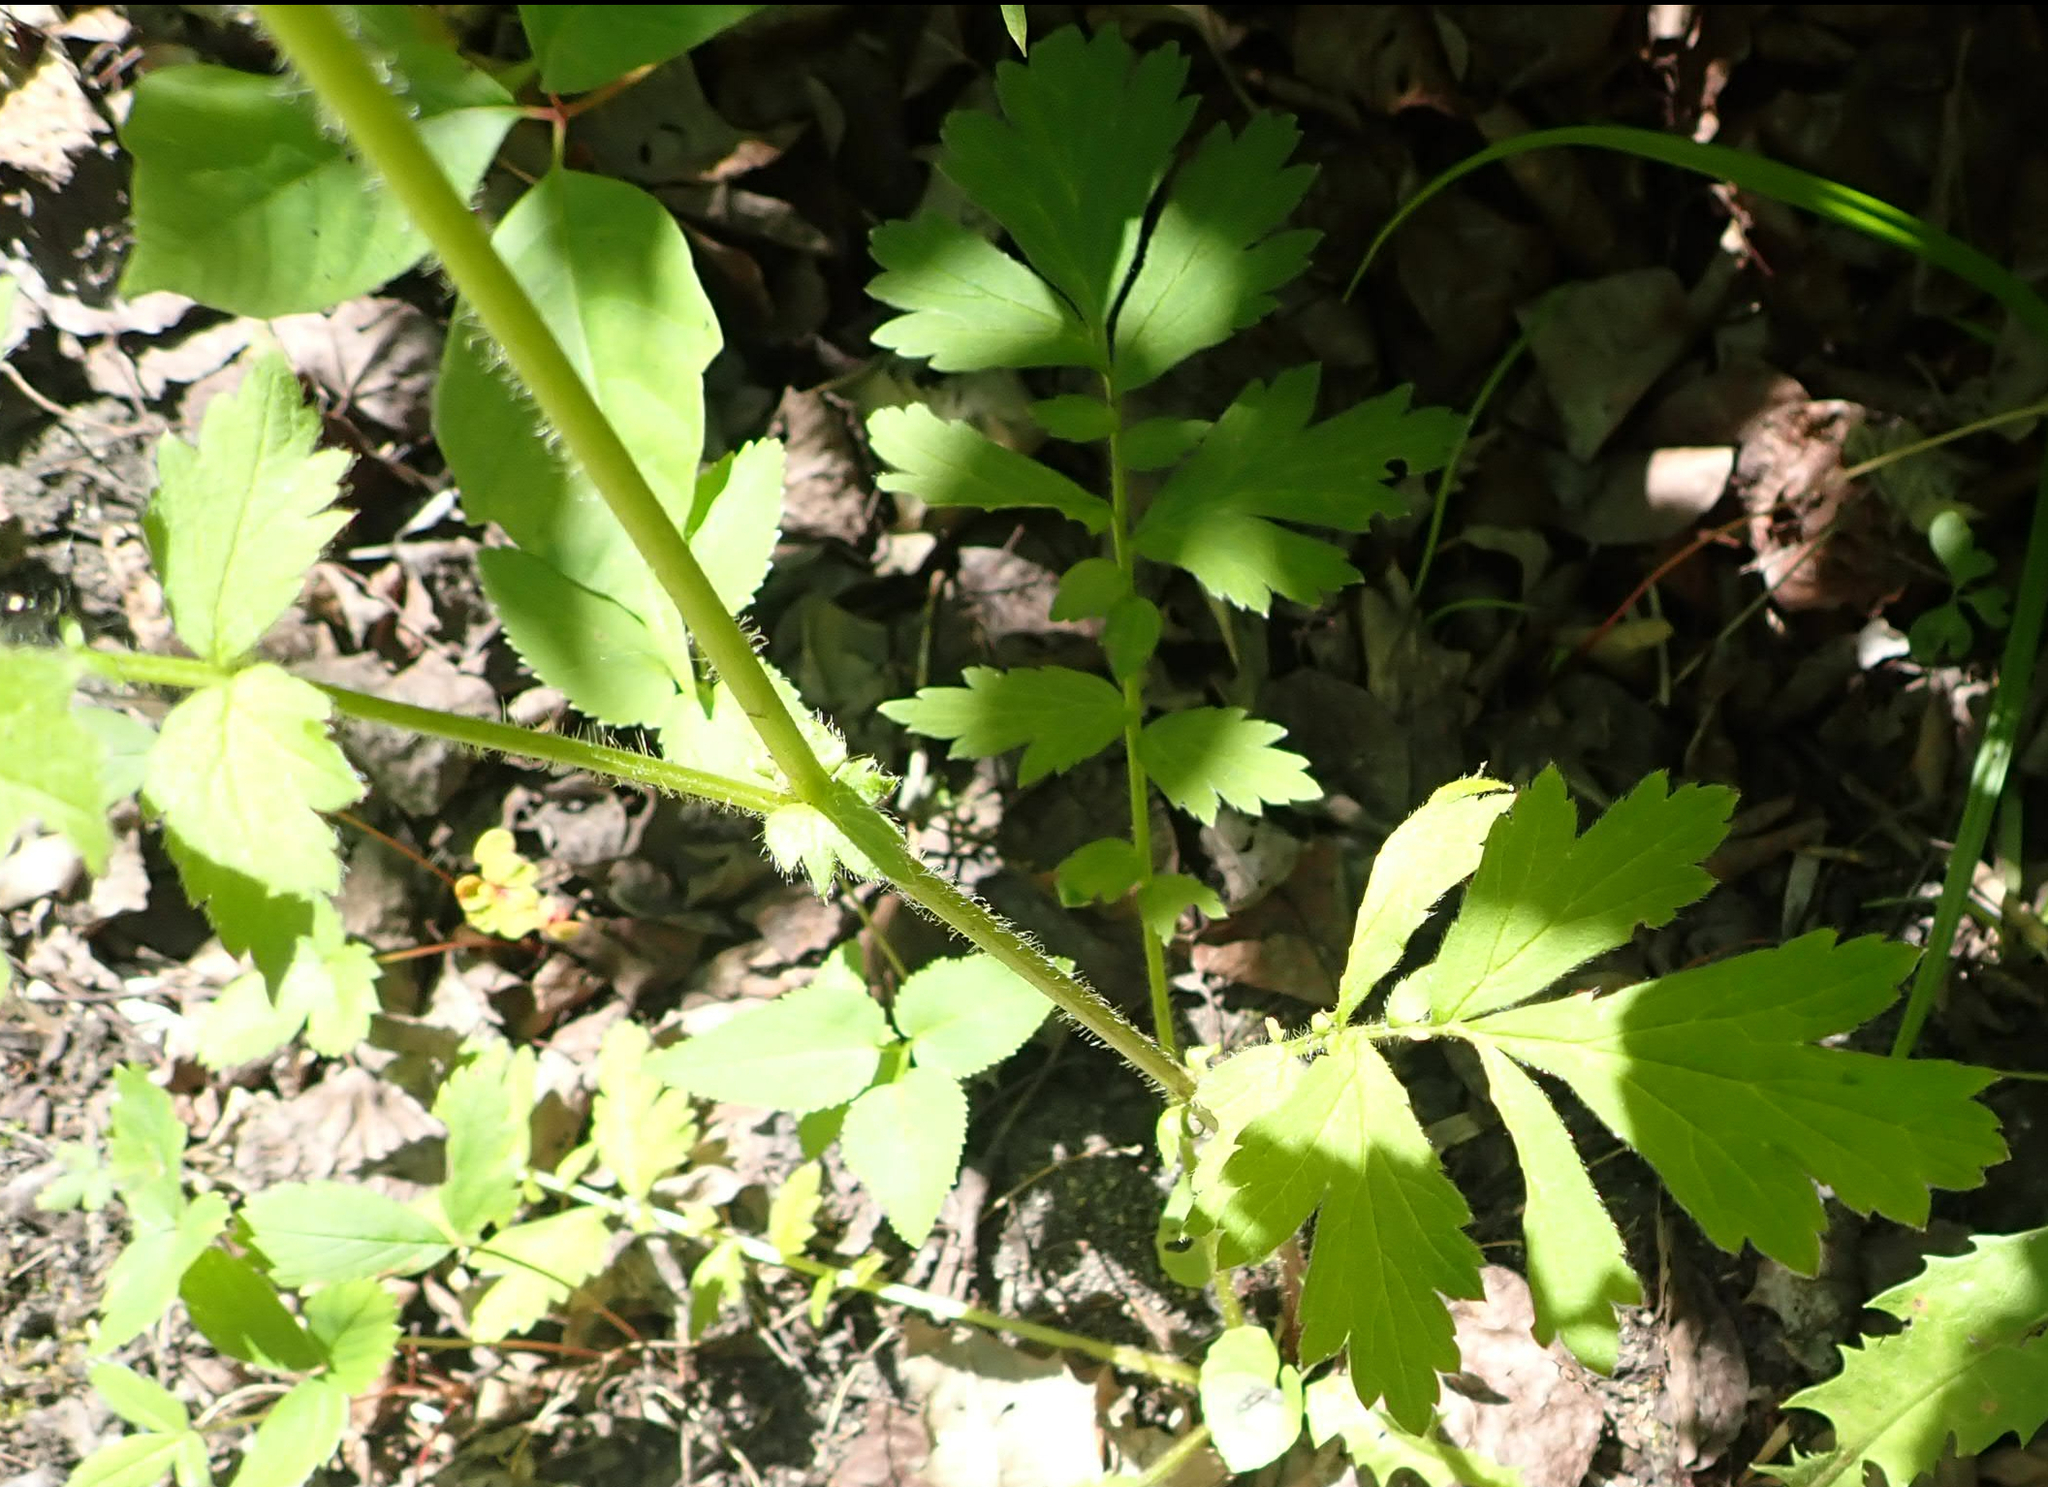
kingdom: Plantae
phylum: Tracheophyta
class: Magnoliopsida
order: Rosales
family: Rosaceae
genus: Geum
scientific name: Geum aleppicum
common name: Yellow avens
